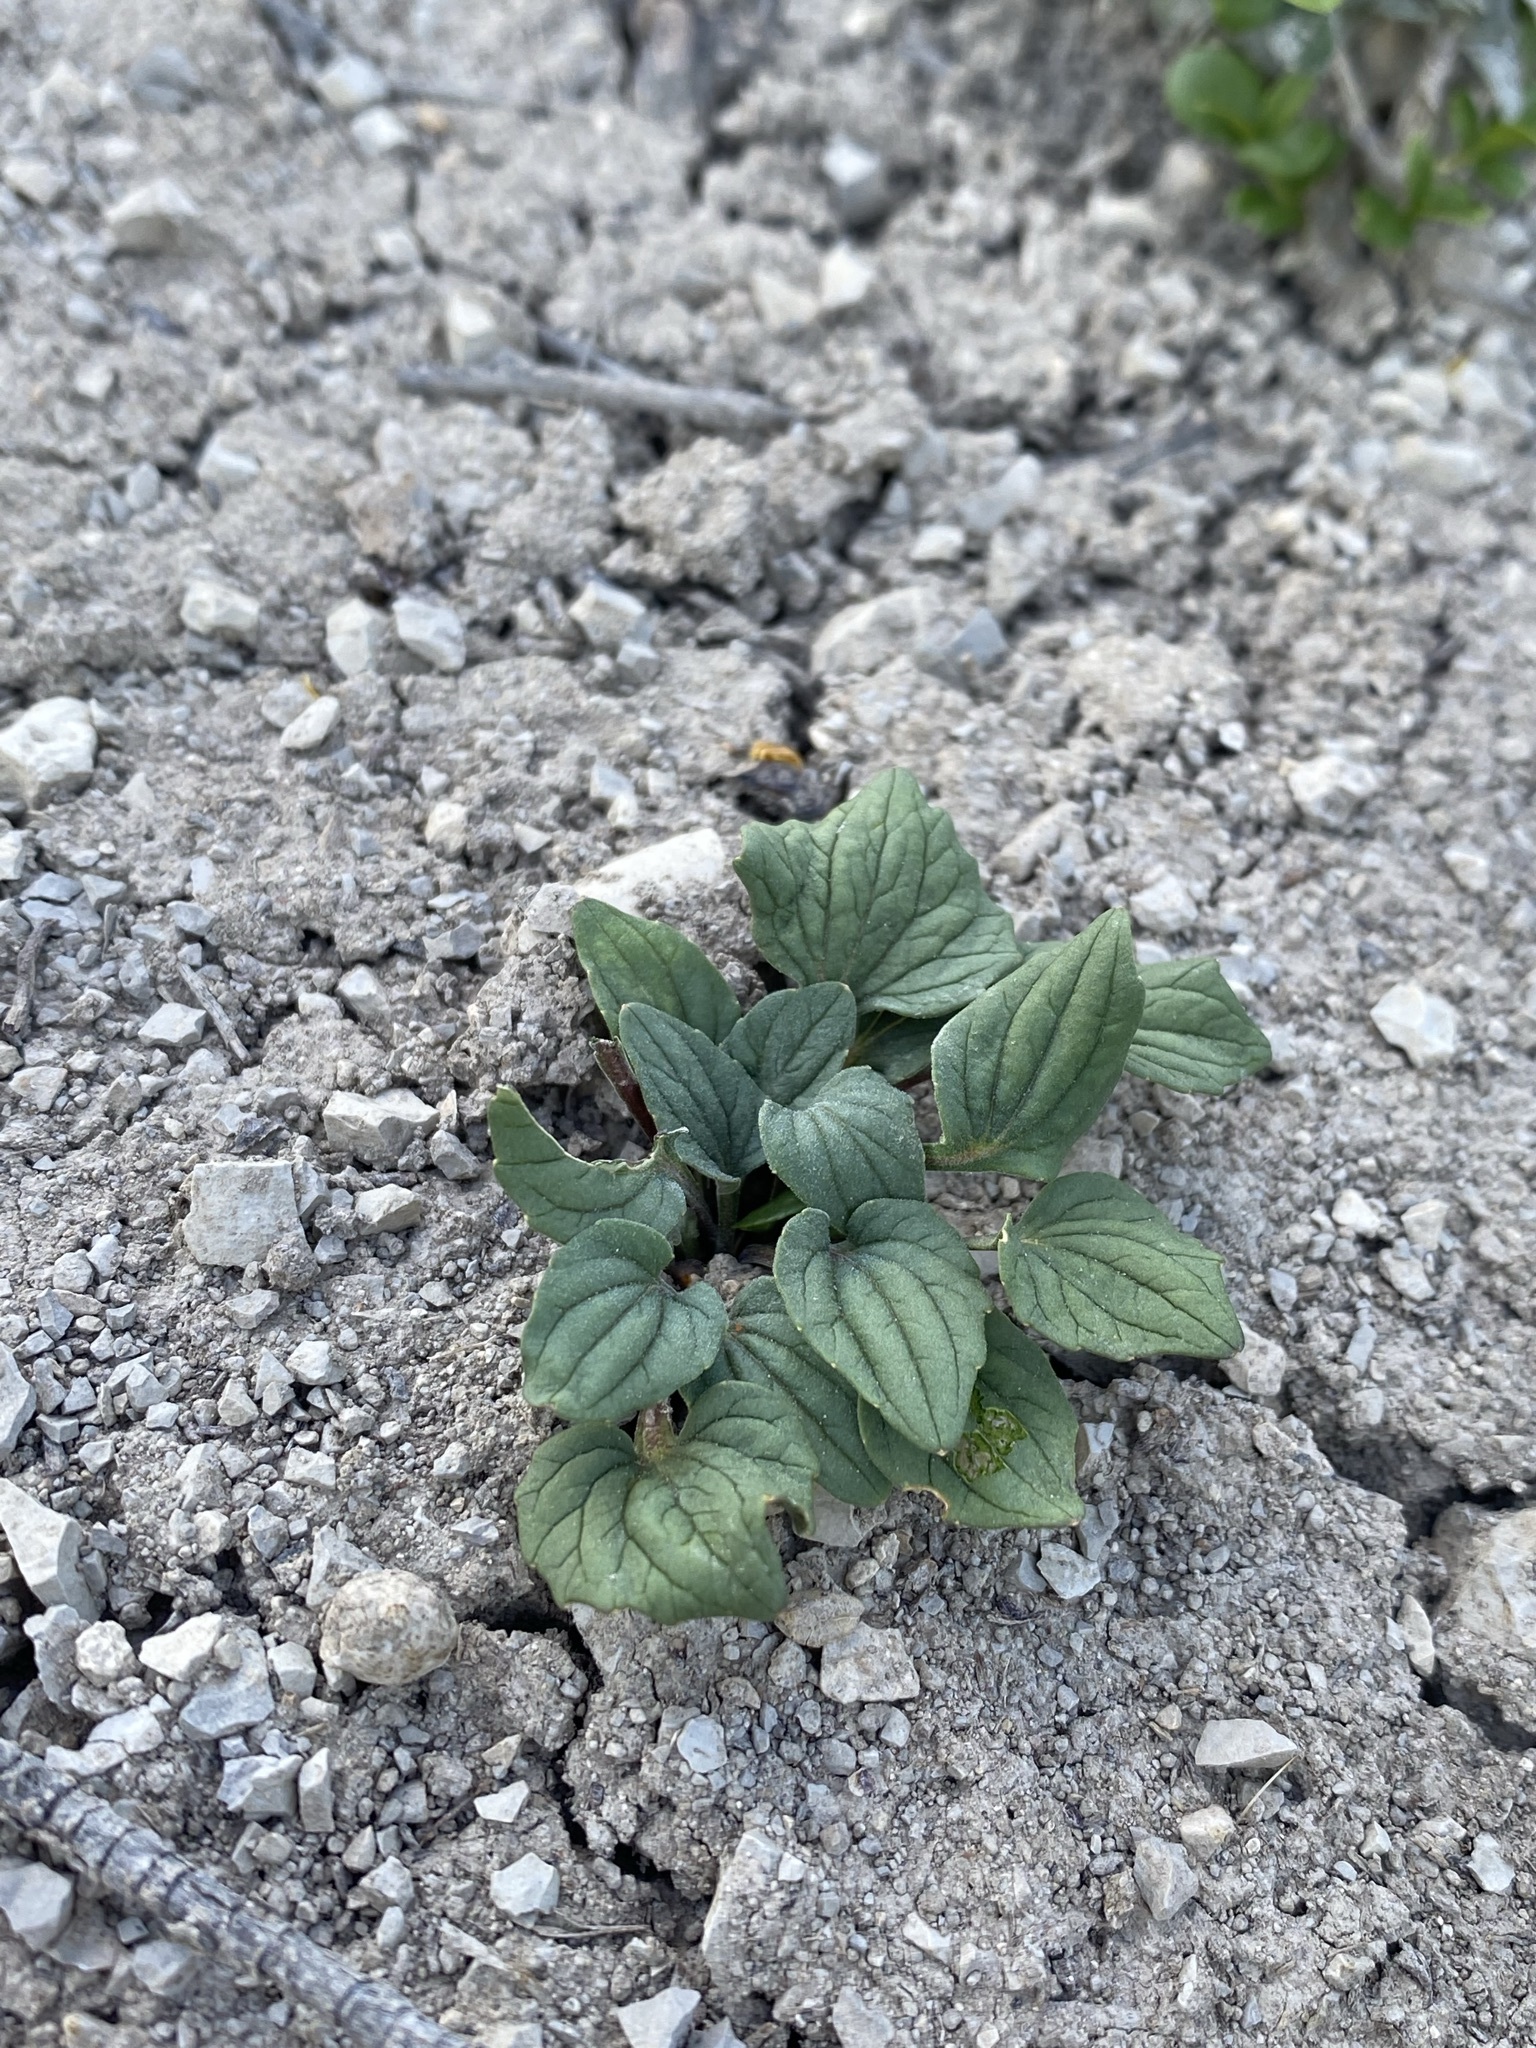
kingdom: Plantae
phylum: Tracheophyta
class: Magnoliopsida
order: Malpighiales
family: Violaceae
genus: Viola
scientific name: Viola purpurea
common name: Pine violet
